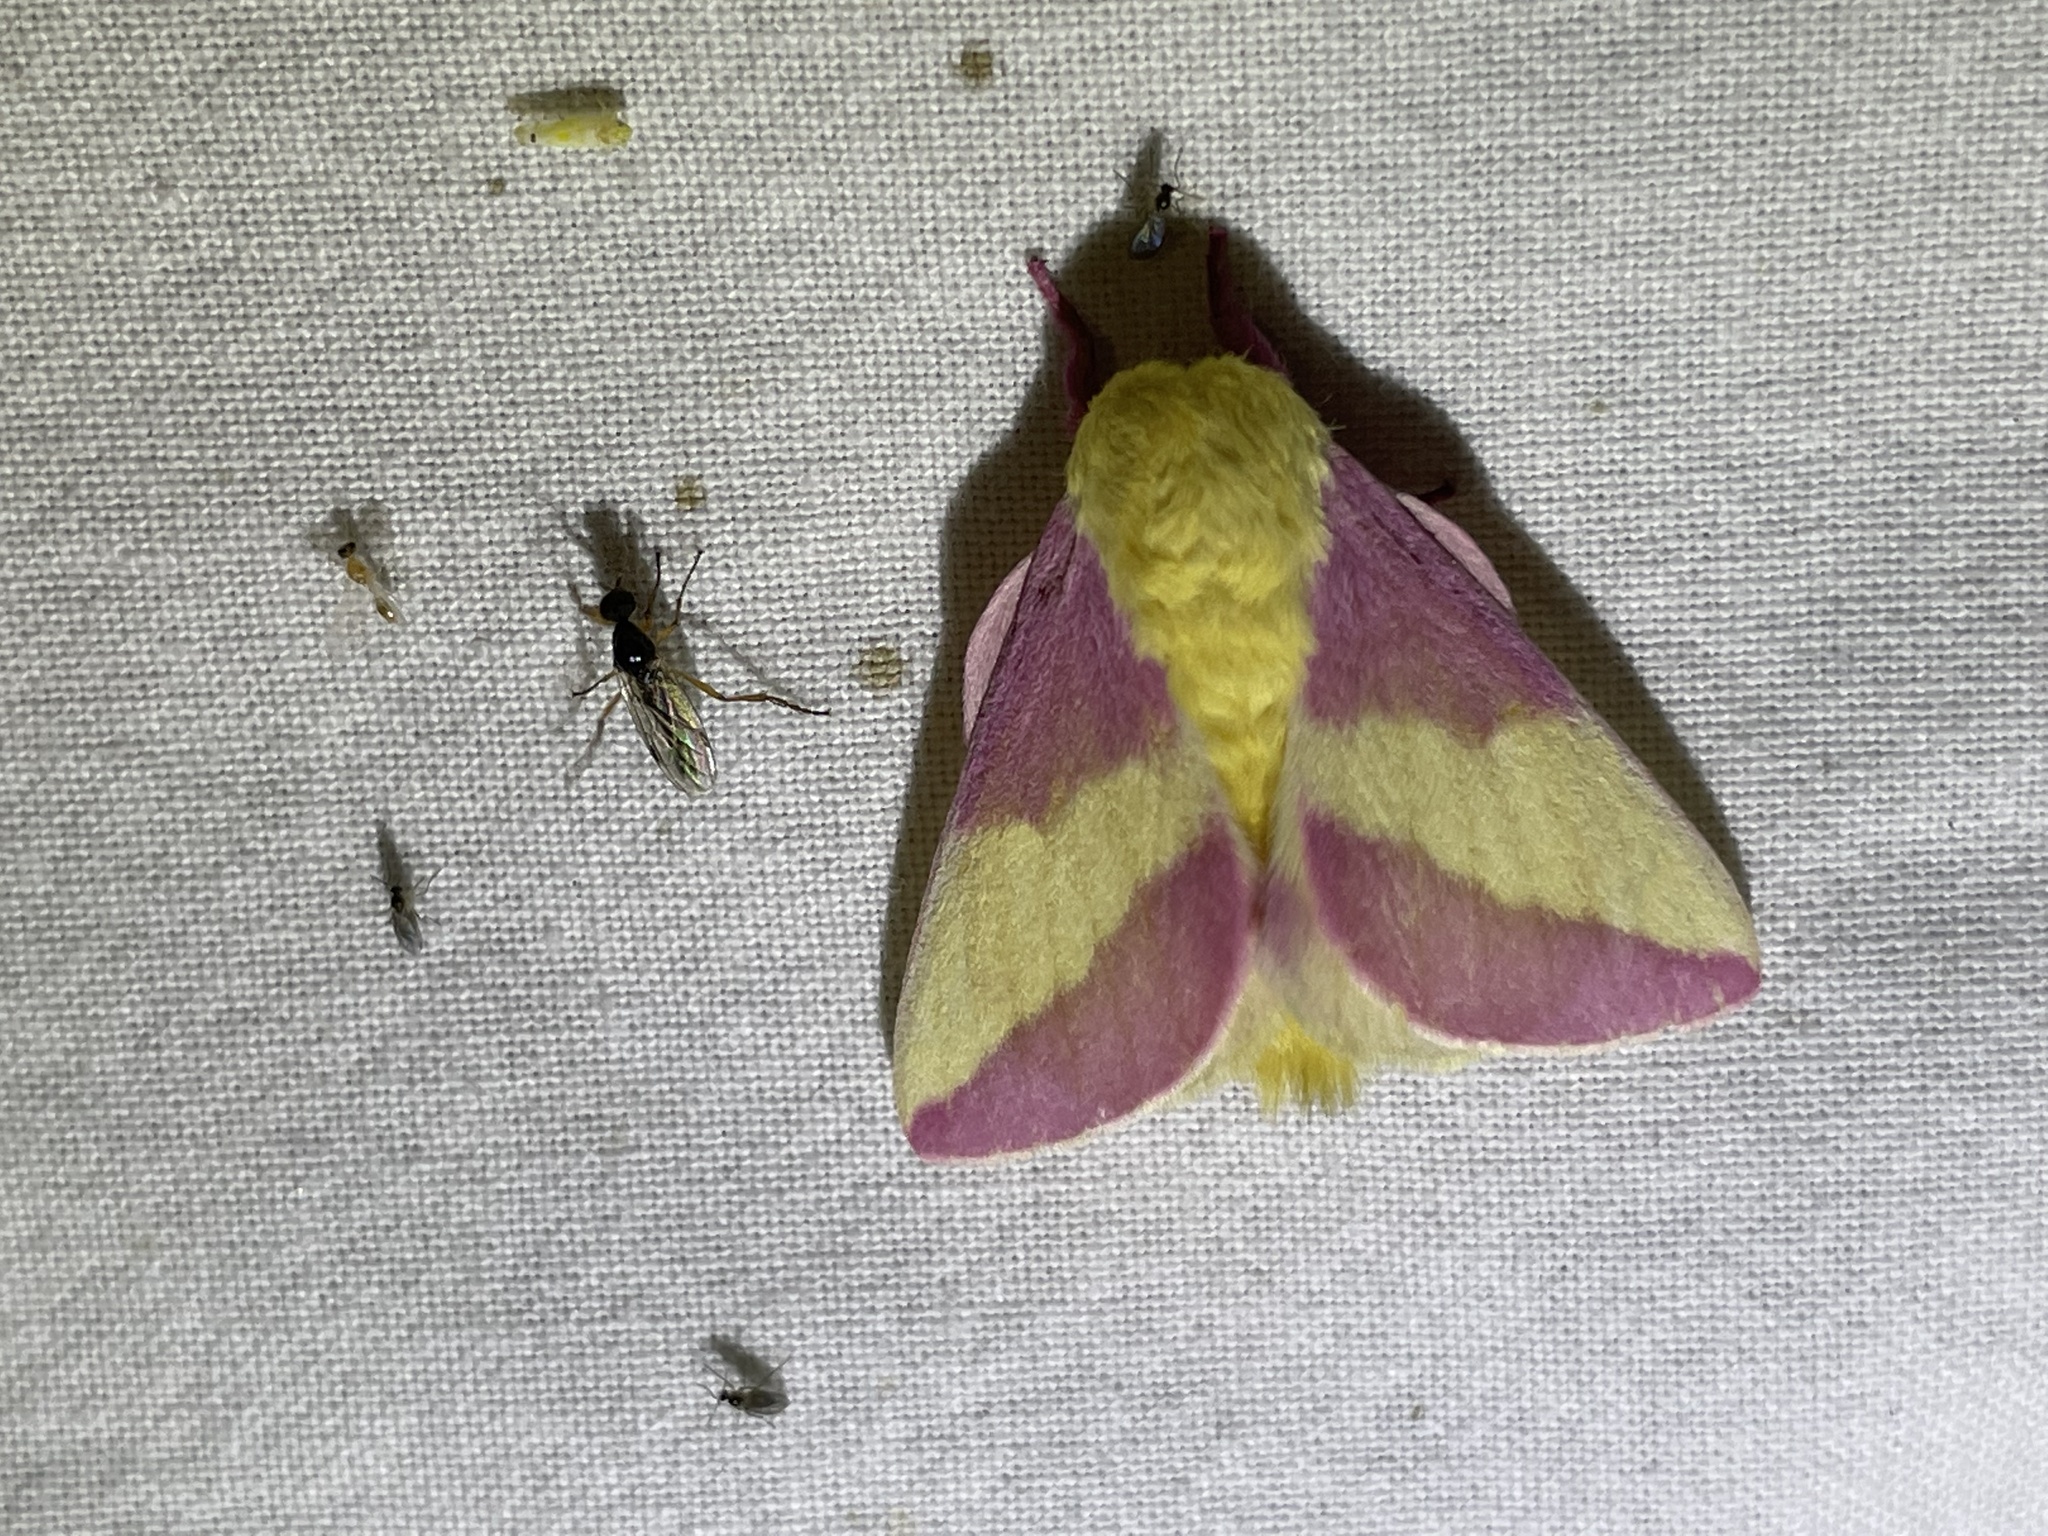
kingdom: Animalia
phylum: Arthropoda
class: Insecta
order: Lepidoptera
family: Saturniidae
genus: Dryocampa
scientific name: Dryocampa rubicunda
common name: Rosy maple moth
